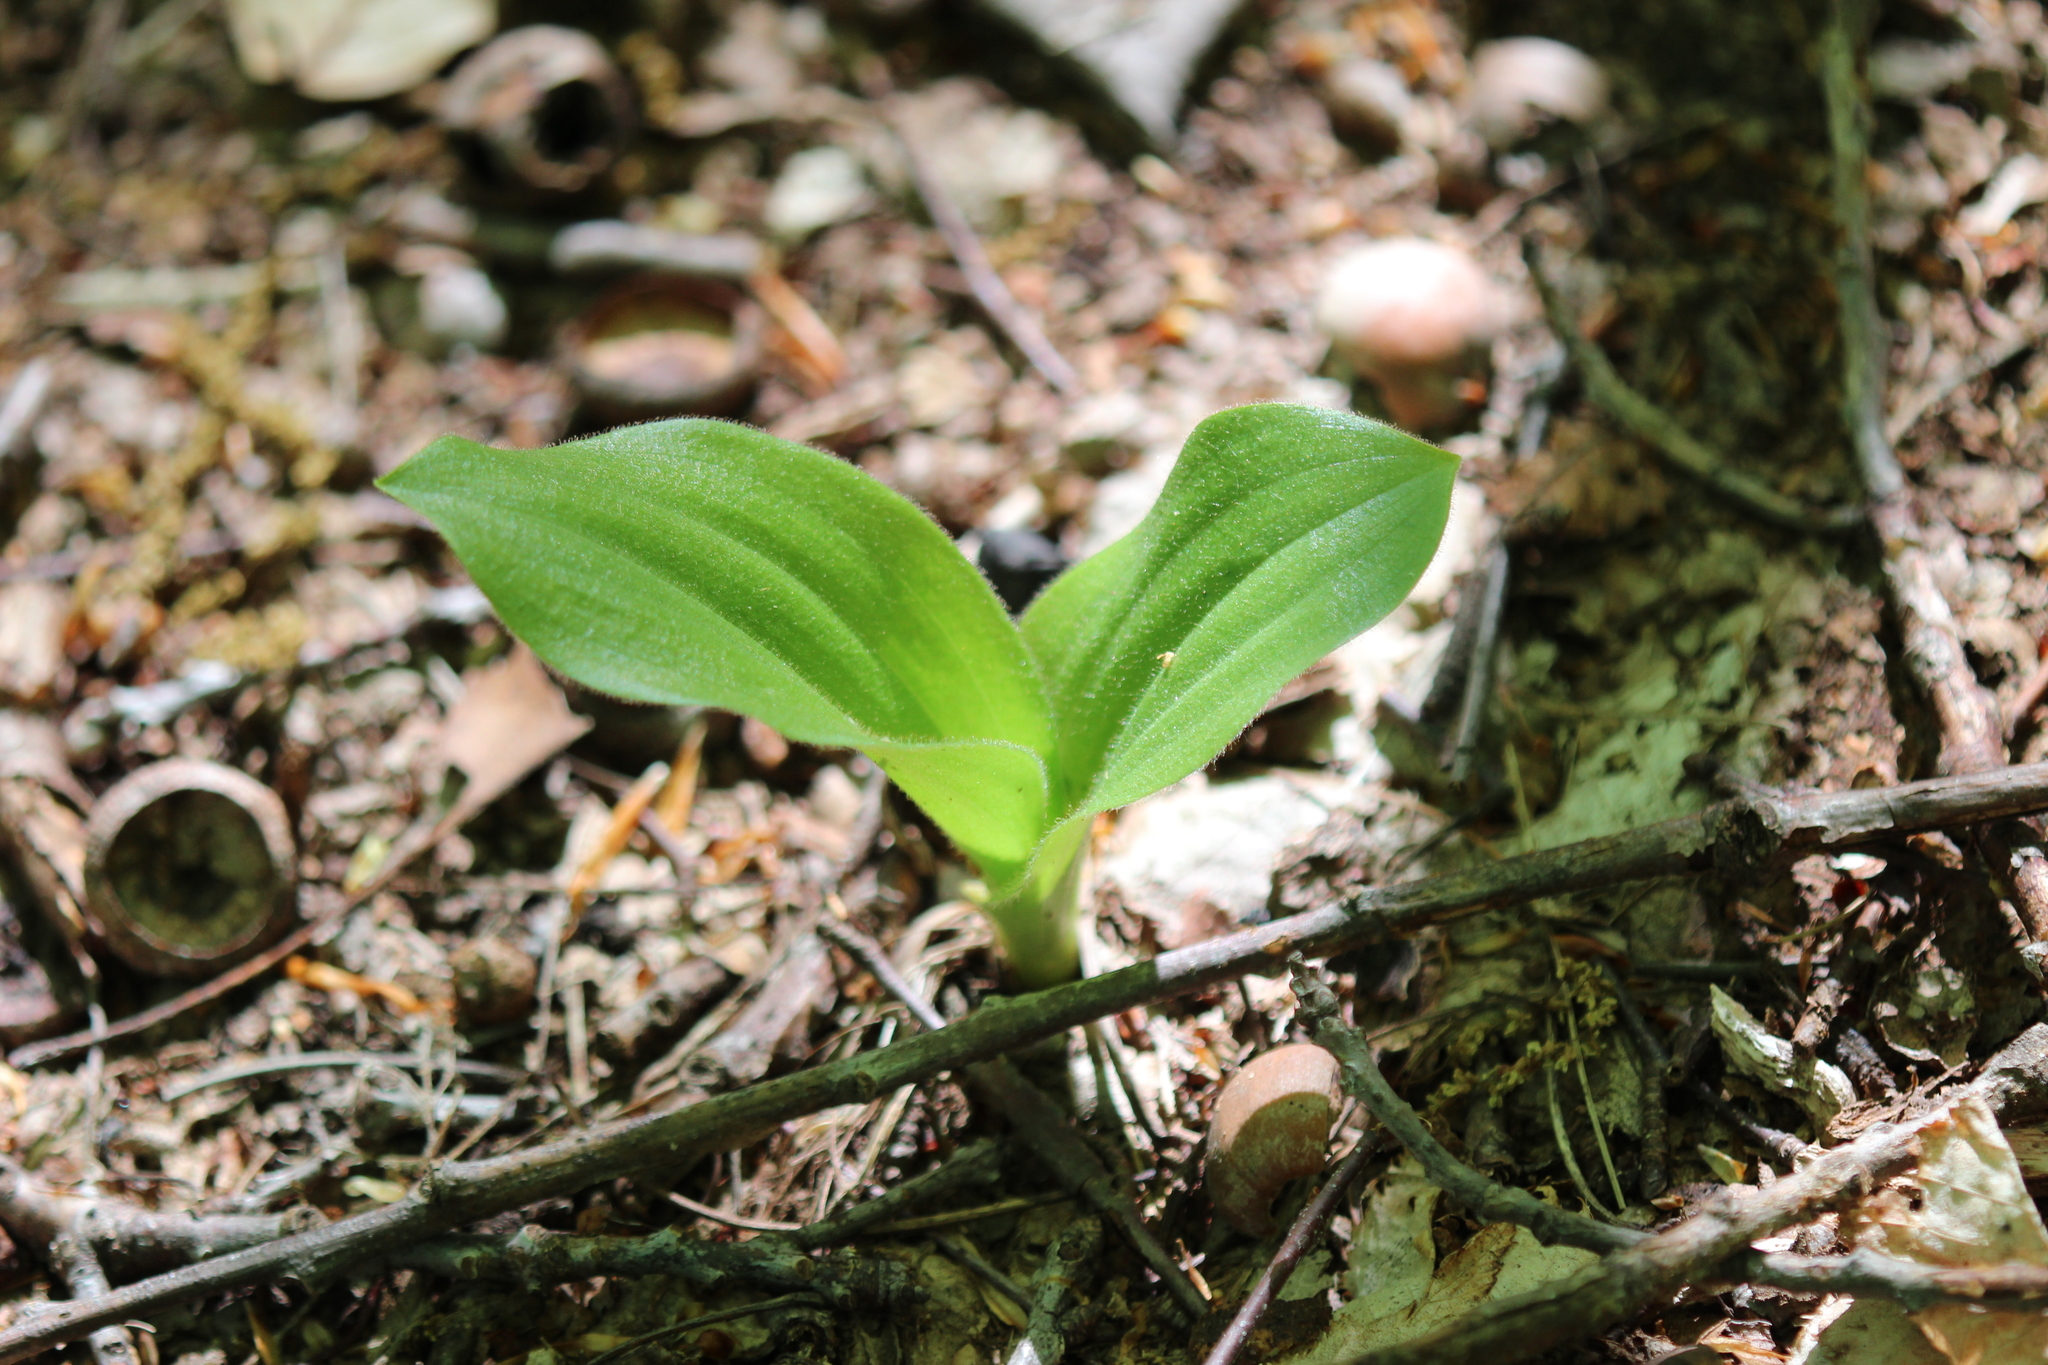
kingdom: Plantae
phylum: Tracheophyta
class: Liliopsida
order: Asparagales
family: Orchidaceae
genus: Cypripedium
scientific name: Cypripedium acaule
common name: Pink lady's-slipper
